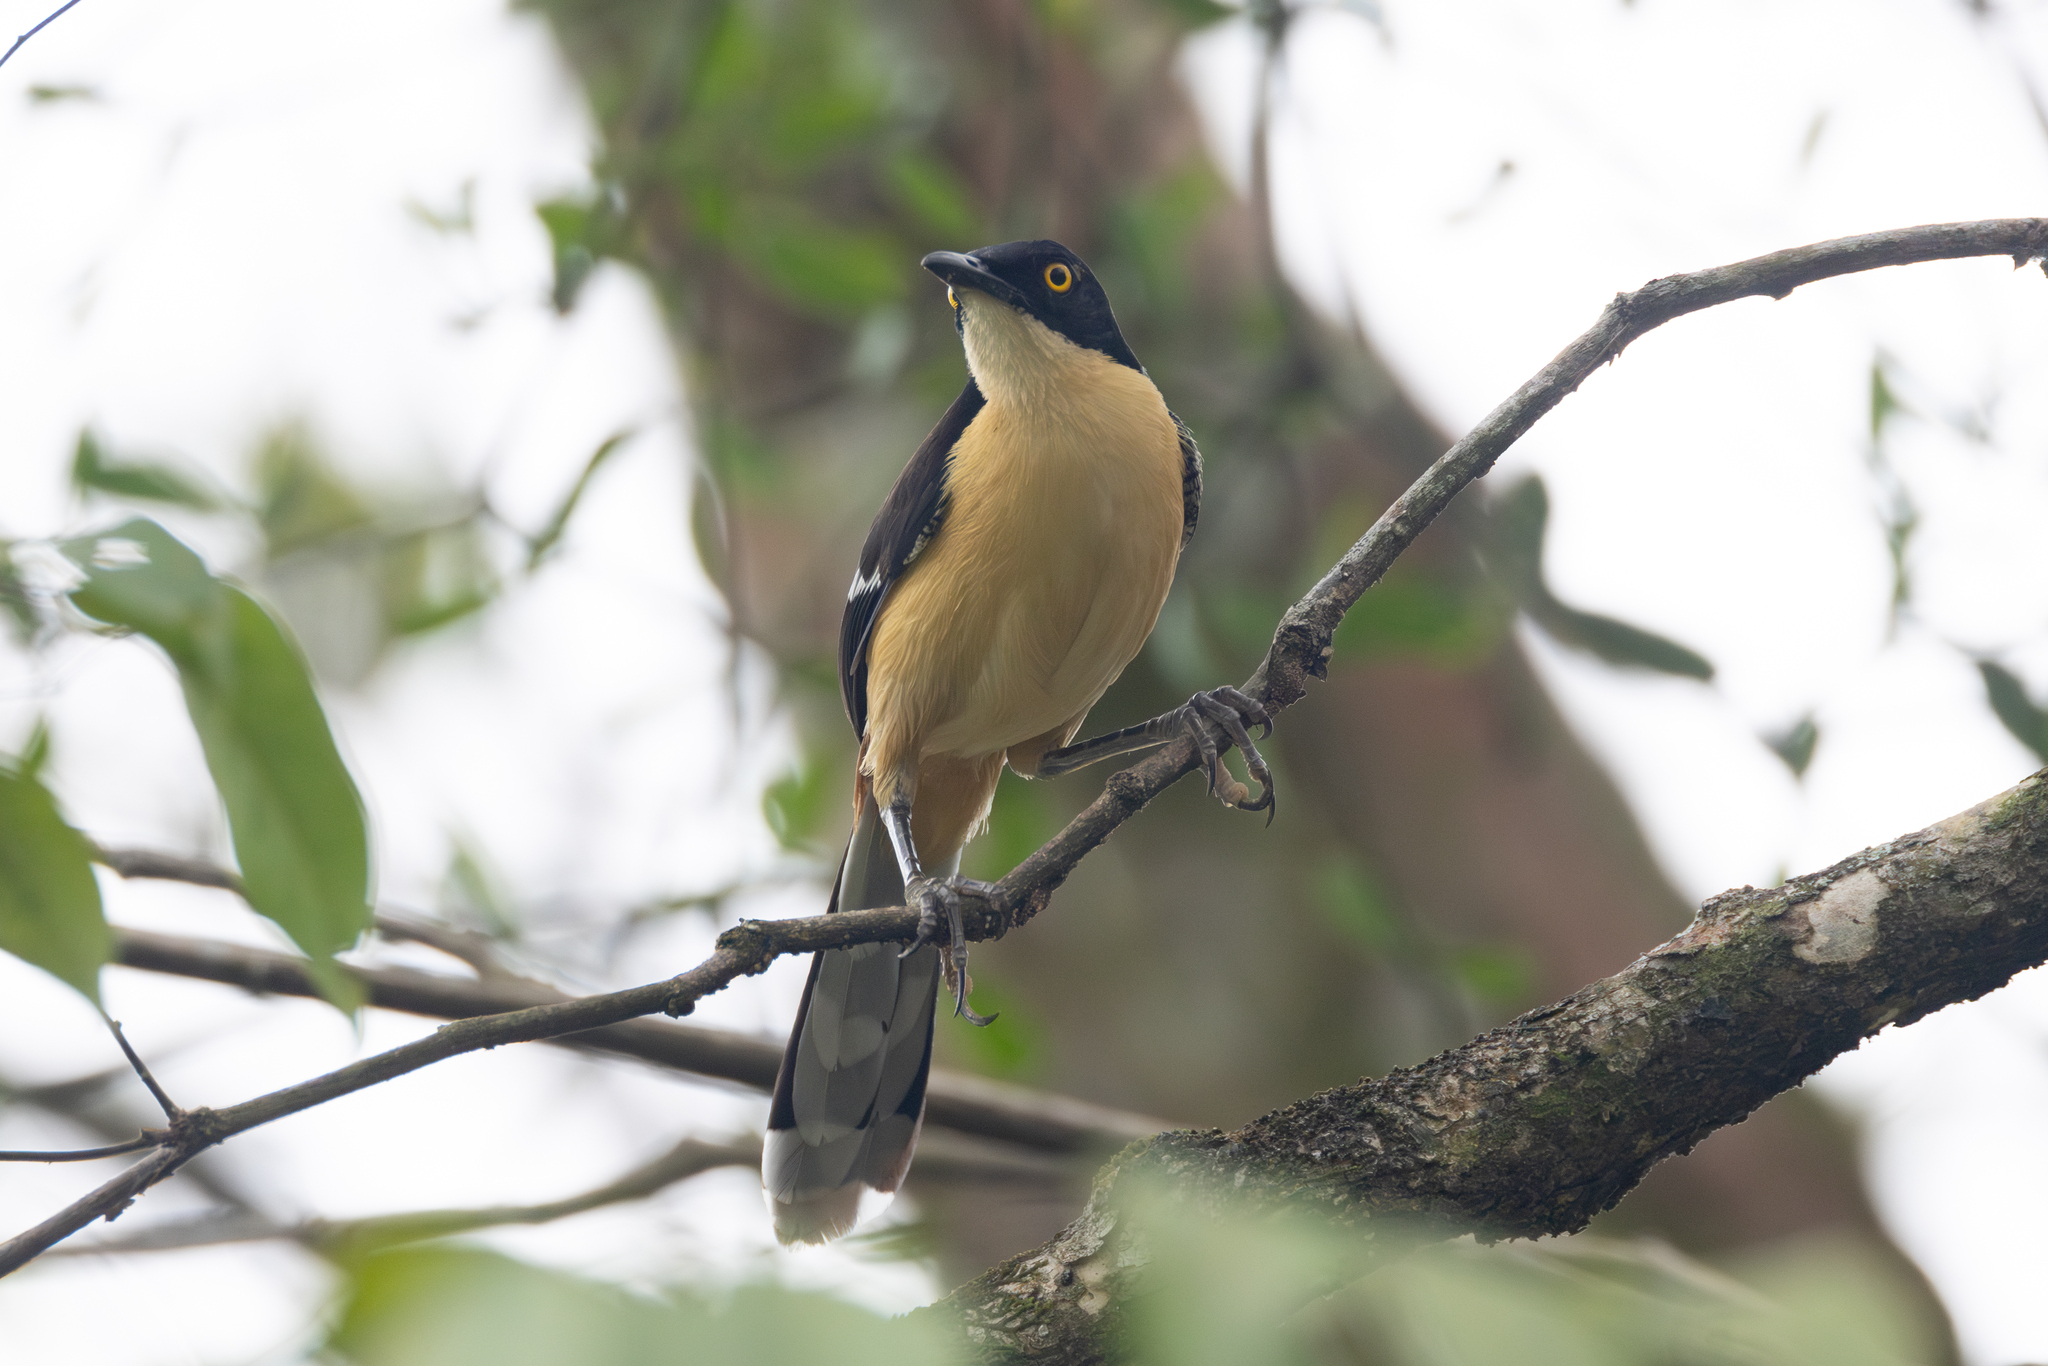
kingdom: Animalia
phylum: Chordata
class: Aves
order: Passeriformes
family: Donacobiidae
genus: Donacobius
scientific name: Donacobius atricapilla
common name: Black-capped donacobius
